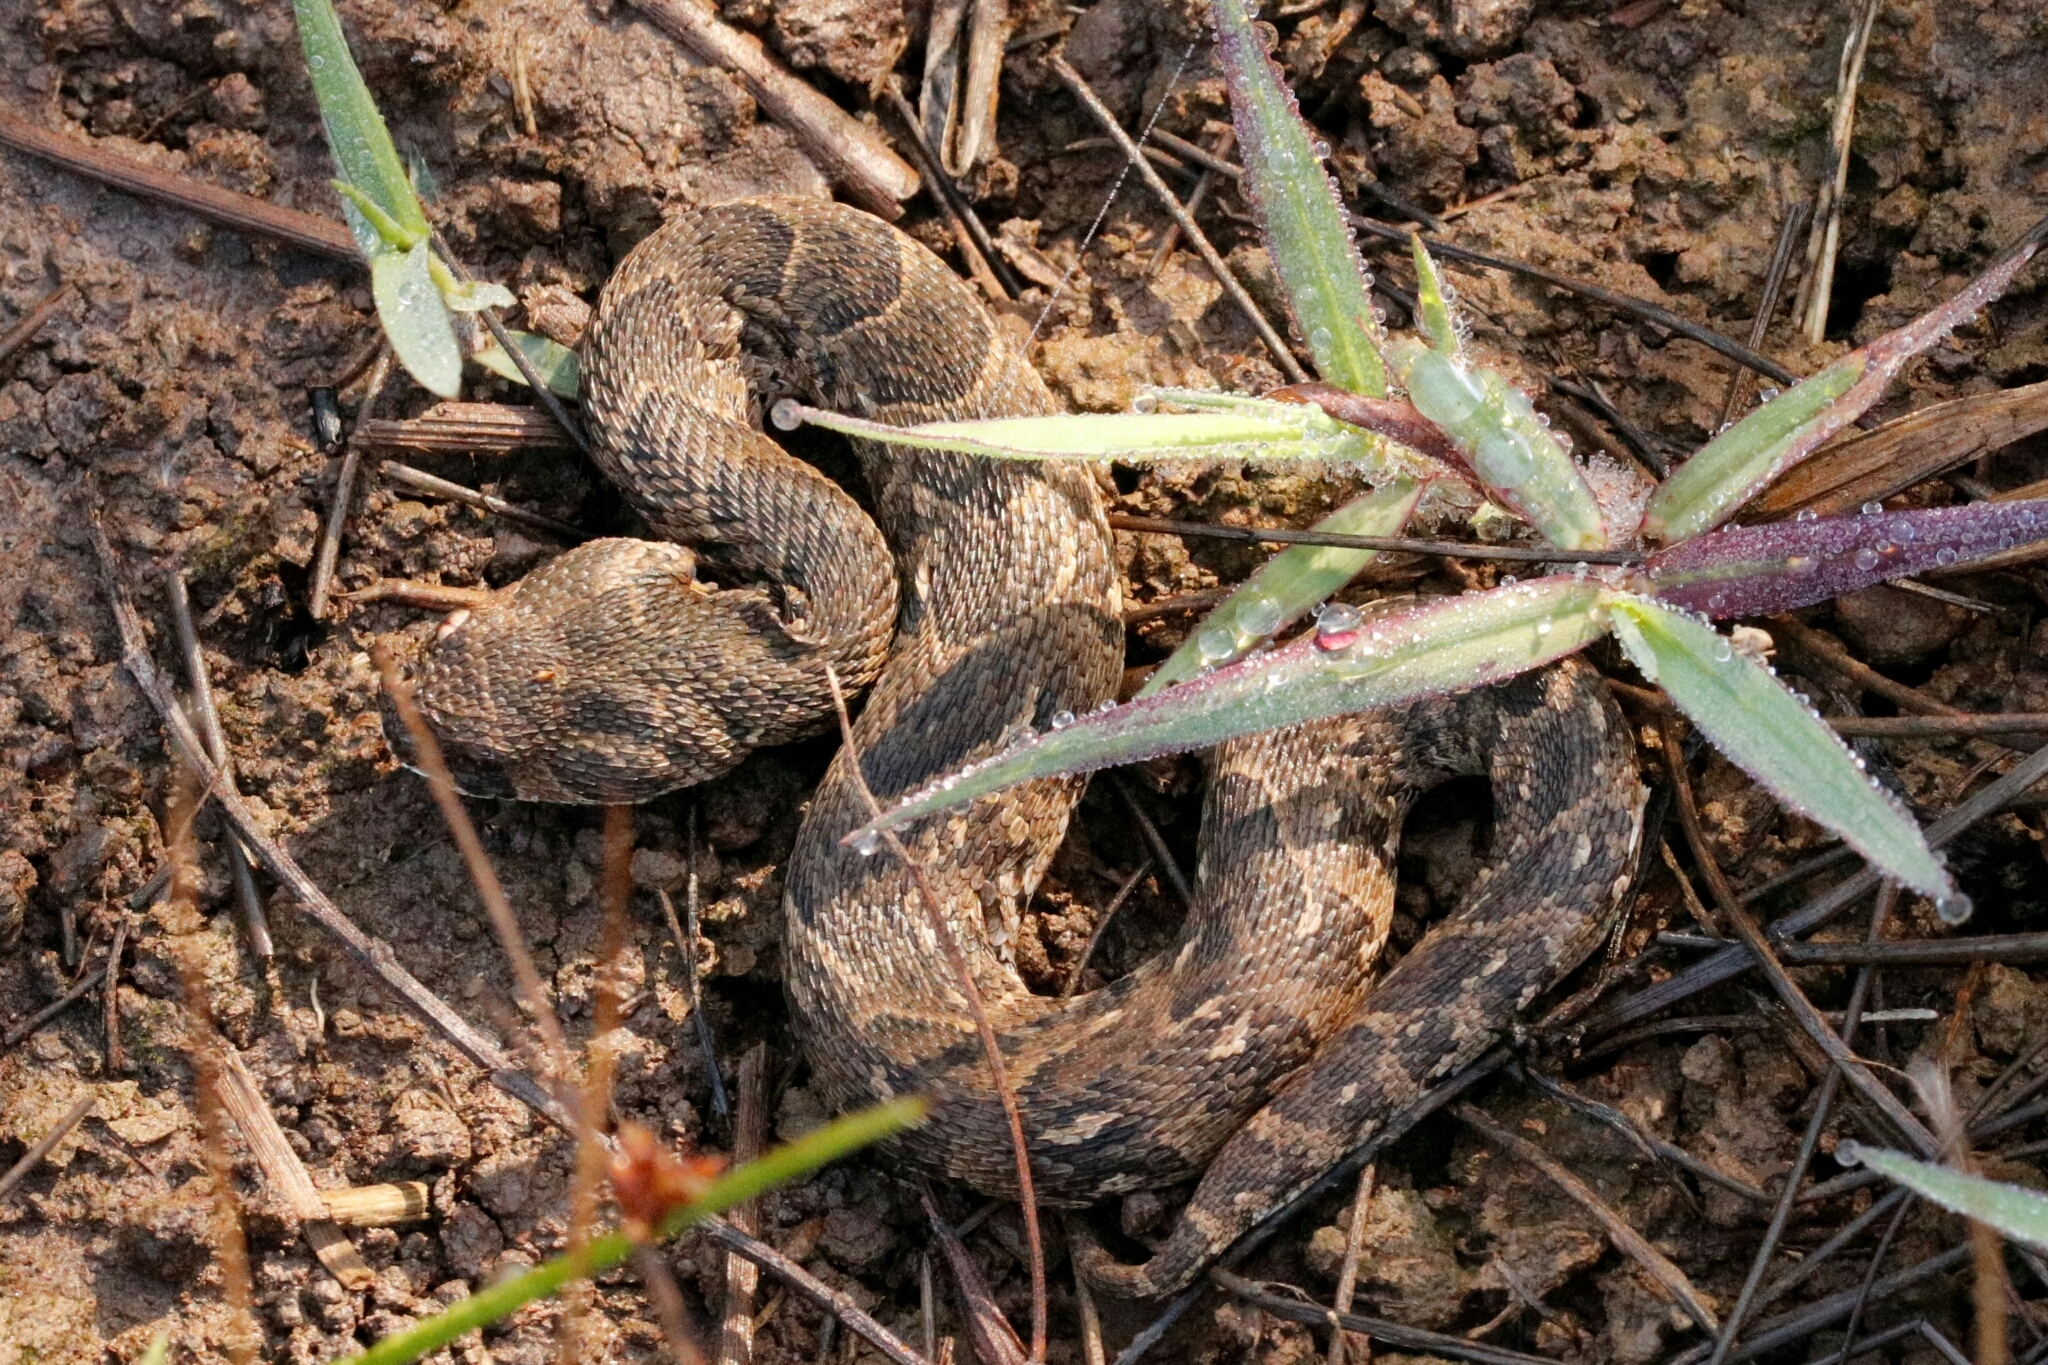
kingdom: Animalia
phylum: Chordata
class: Squamata
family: Viperidae
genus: Bitis
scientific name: Bitis arietans
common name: Puff adder
